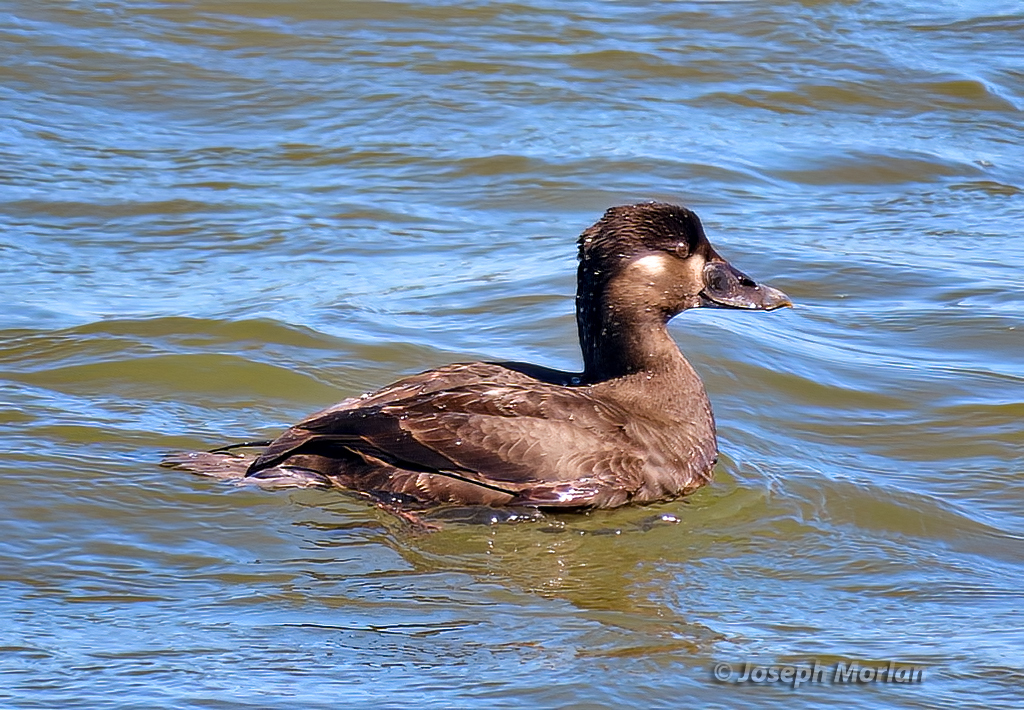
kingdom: Animalia
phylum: Chordata
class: Aves
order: Anseriformes
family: Anatidae
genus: Melanitta
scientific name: Melanitta perspicillata
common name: Surf scoter
